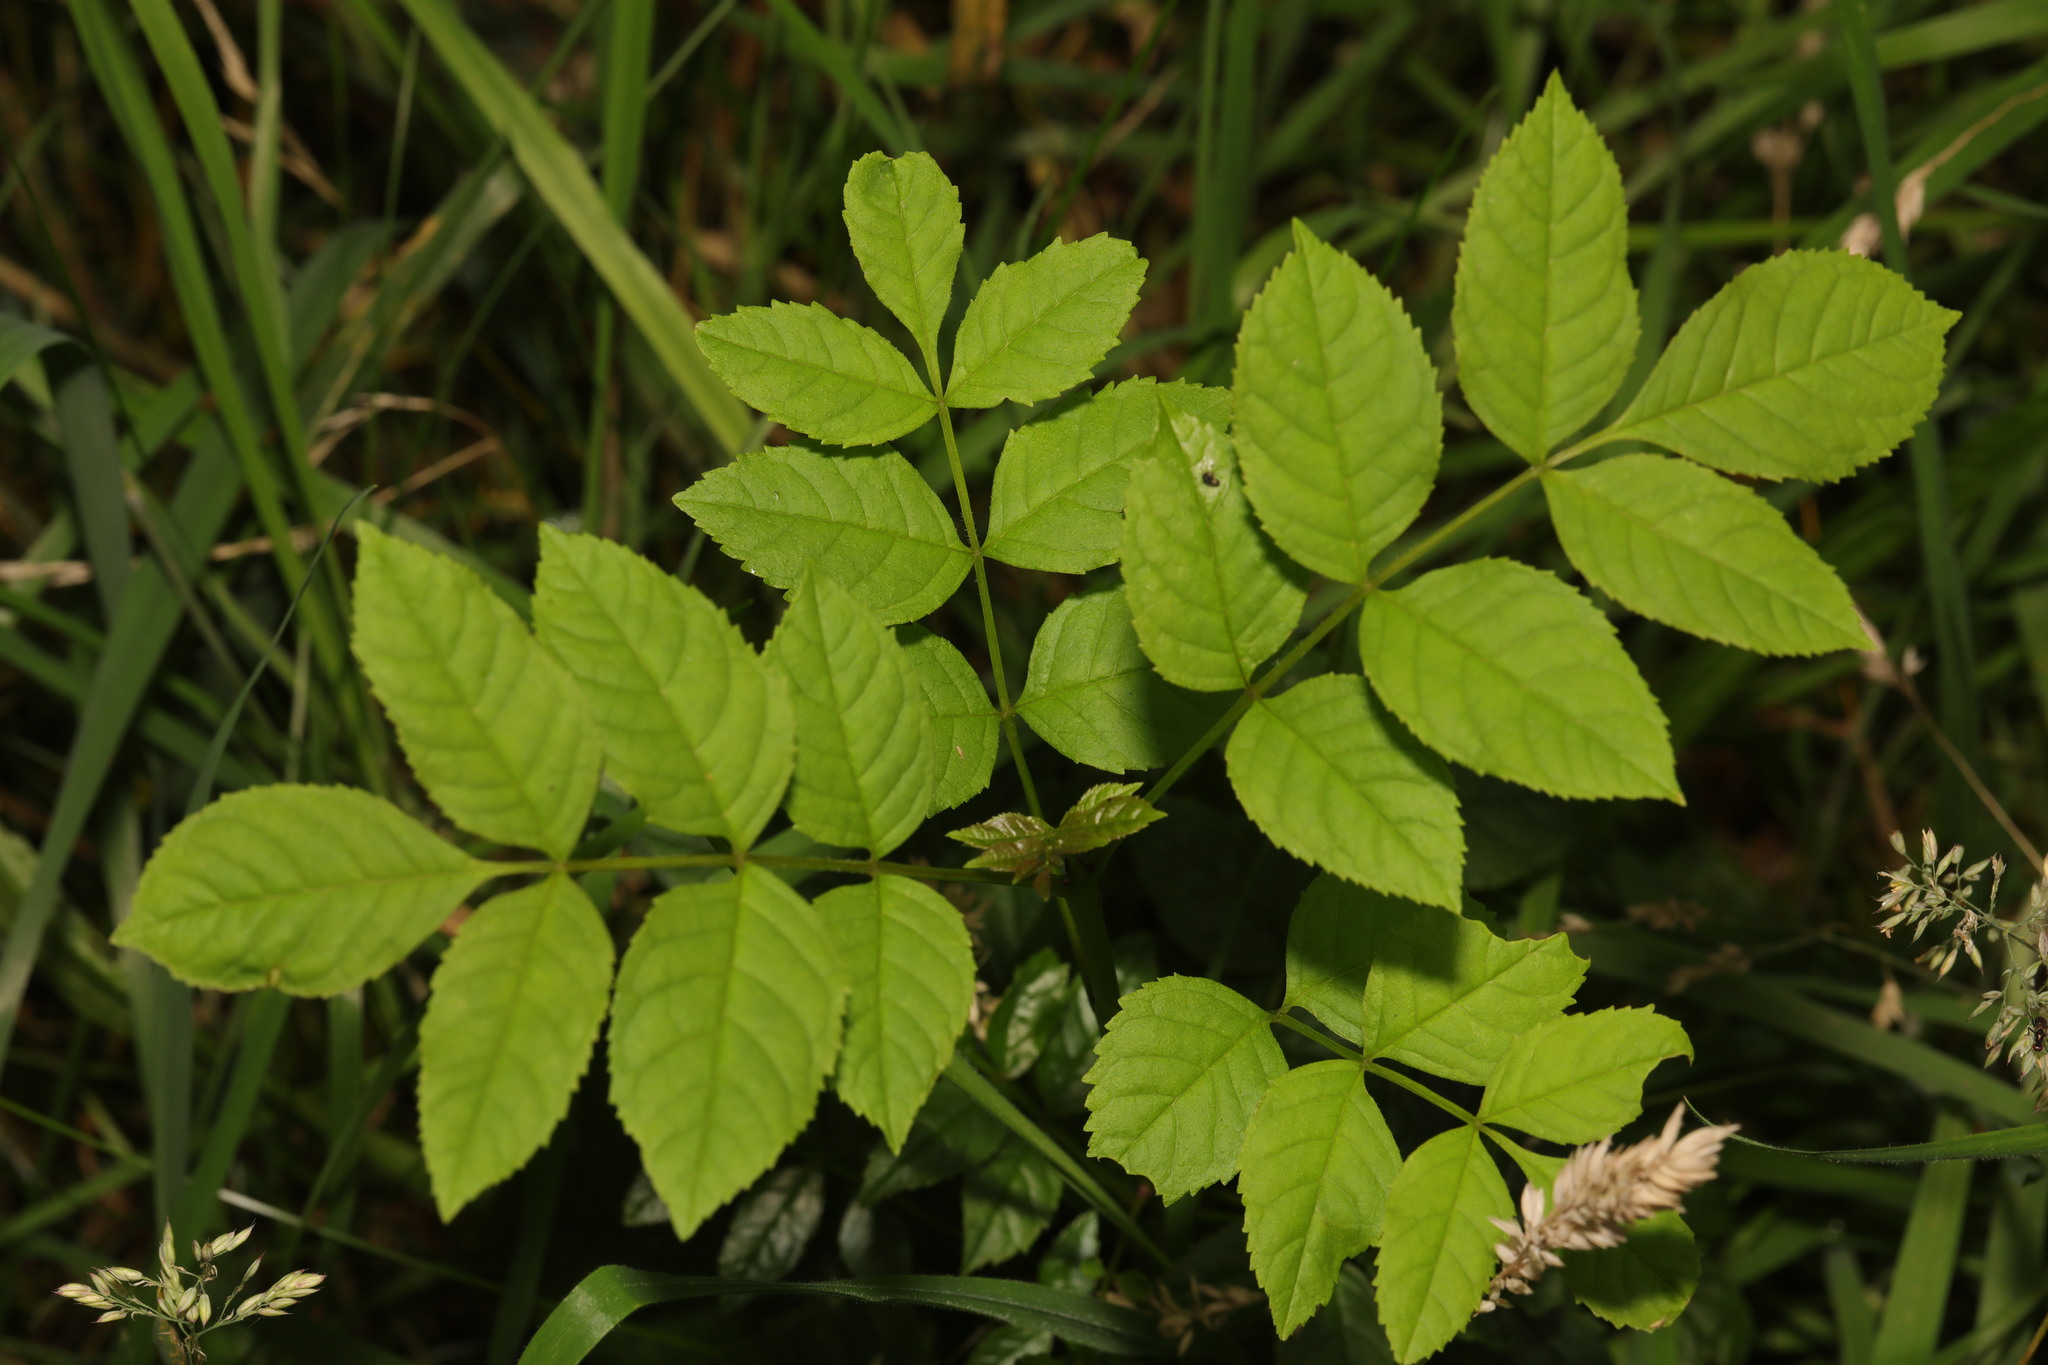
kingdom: Plantae
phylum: Tracheophyta
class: Magnoliopsida
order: Lamiales
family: Oleaceae
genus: Fraxinus
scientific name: Fraxinus excelsior
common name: European ash
